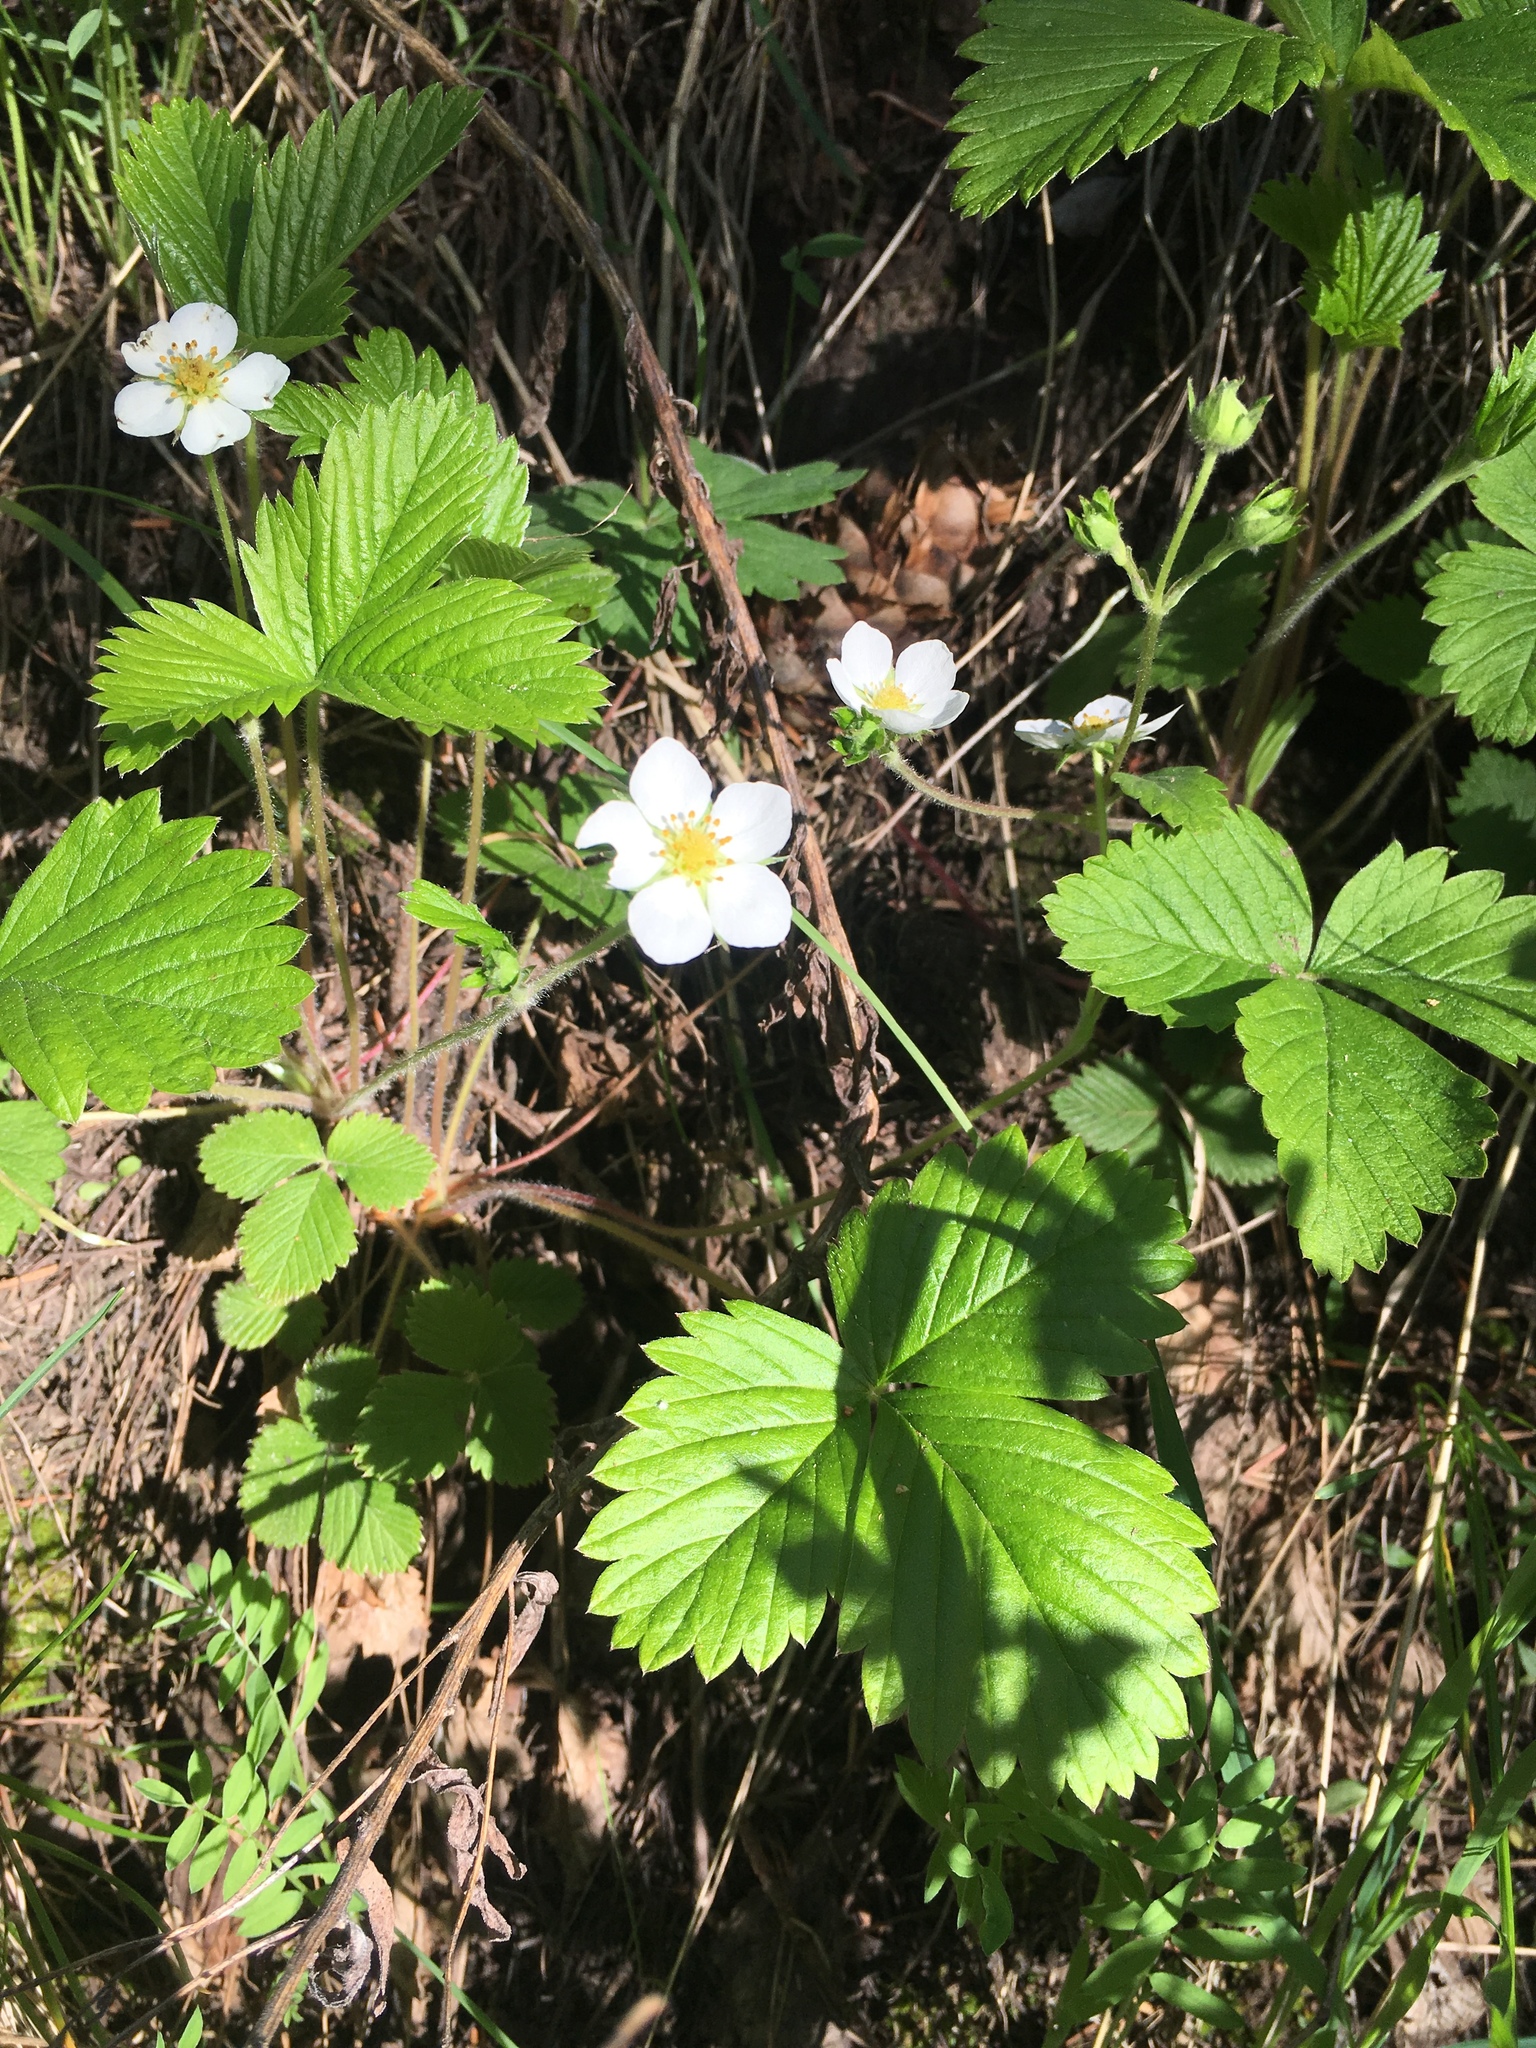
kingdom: Plantae
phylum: Tracheophyta
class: Magnoliopsida
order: Rosales
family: Rosaceae
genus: Fragaria
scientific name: Fragaria vesca
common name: Wild strawberry
